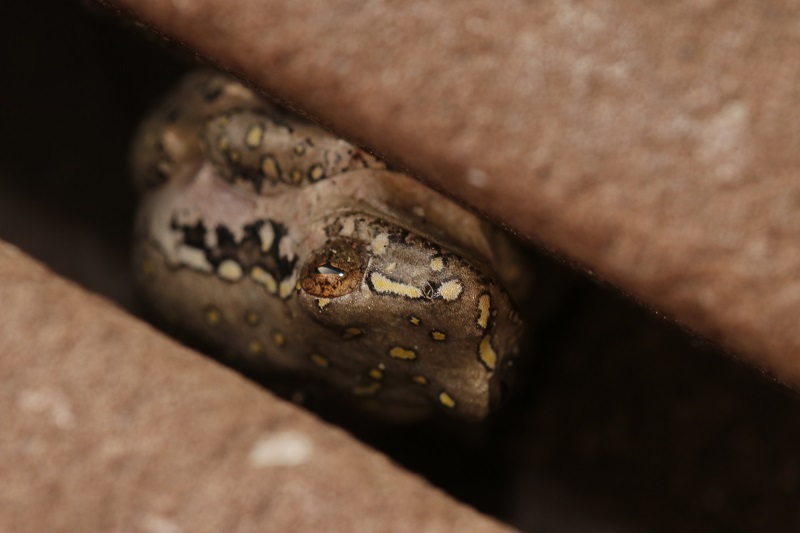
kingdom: Animalia
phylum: Chordata
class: Amphibia
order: Anura
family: Hyperoliidae
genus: Hyperolius
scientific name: Hyperolius marmoratus
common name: Painted reed frog
